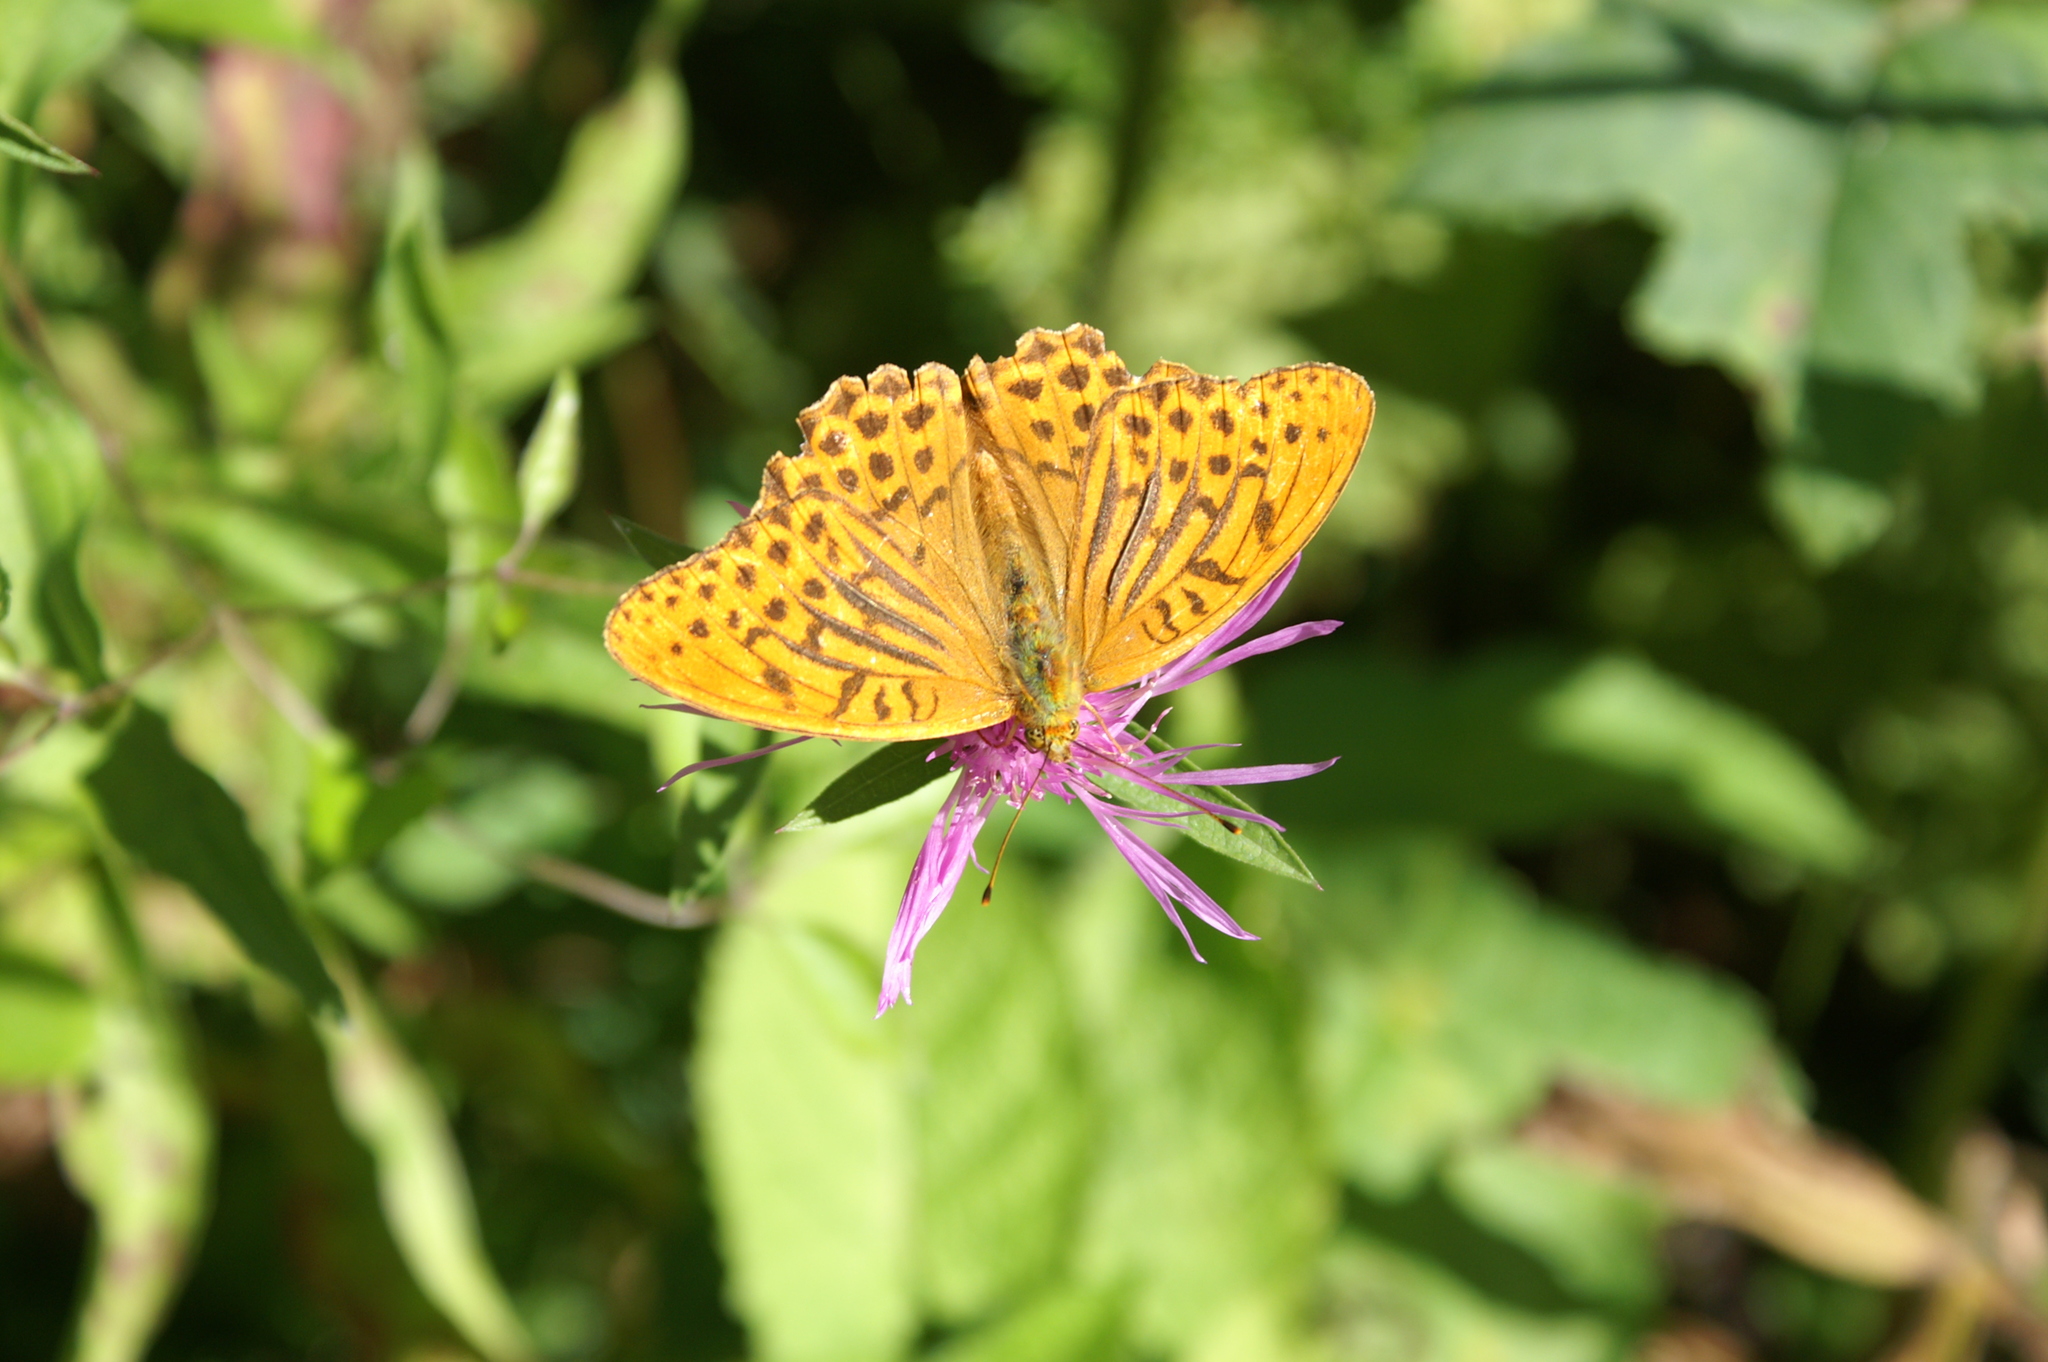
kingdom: Animalia
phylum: Arthropoda
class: Insecta
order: Lepidoptera
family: Nymphalidae
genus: Argynnis
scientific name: Argynnis paphia
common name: Silver-washed fritillary
